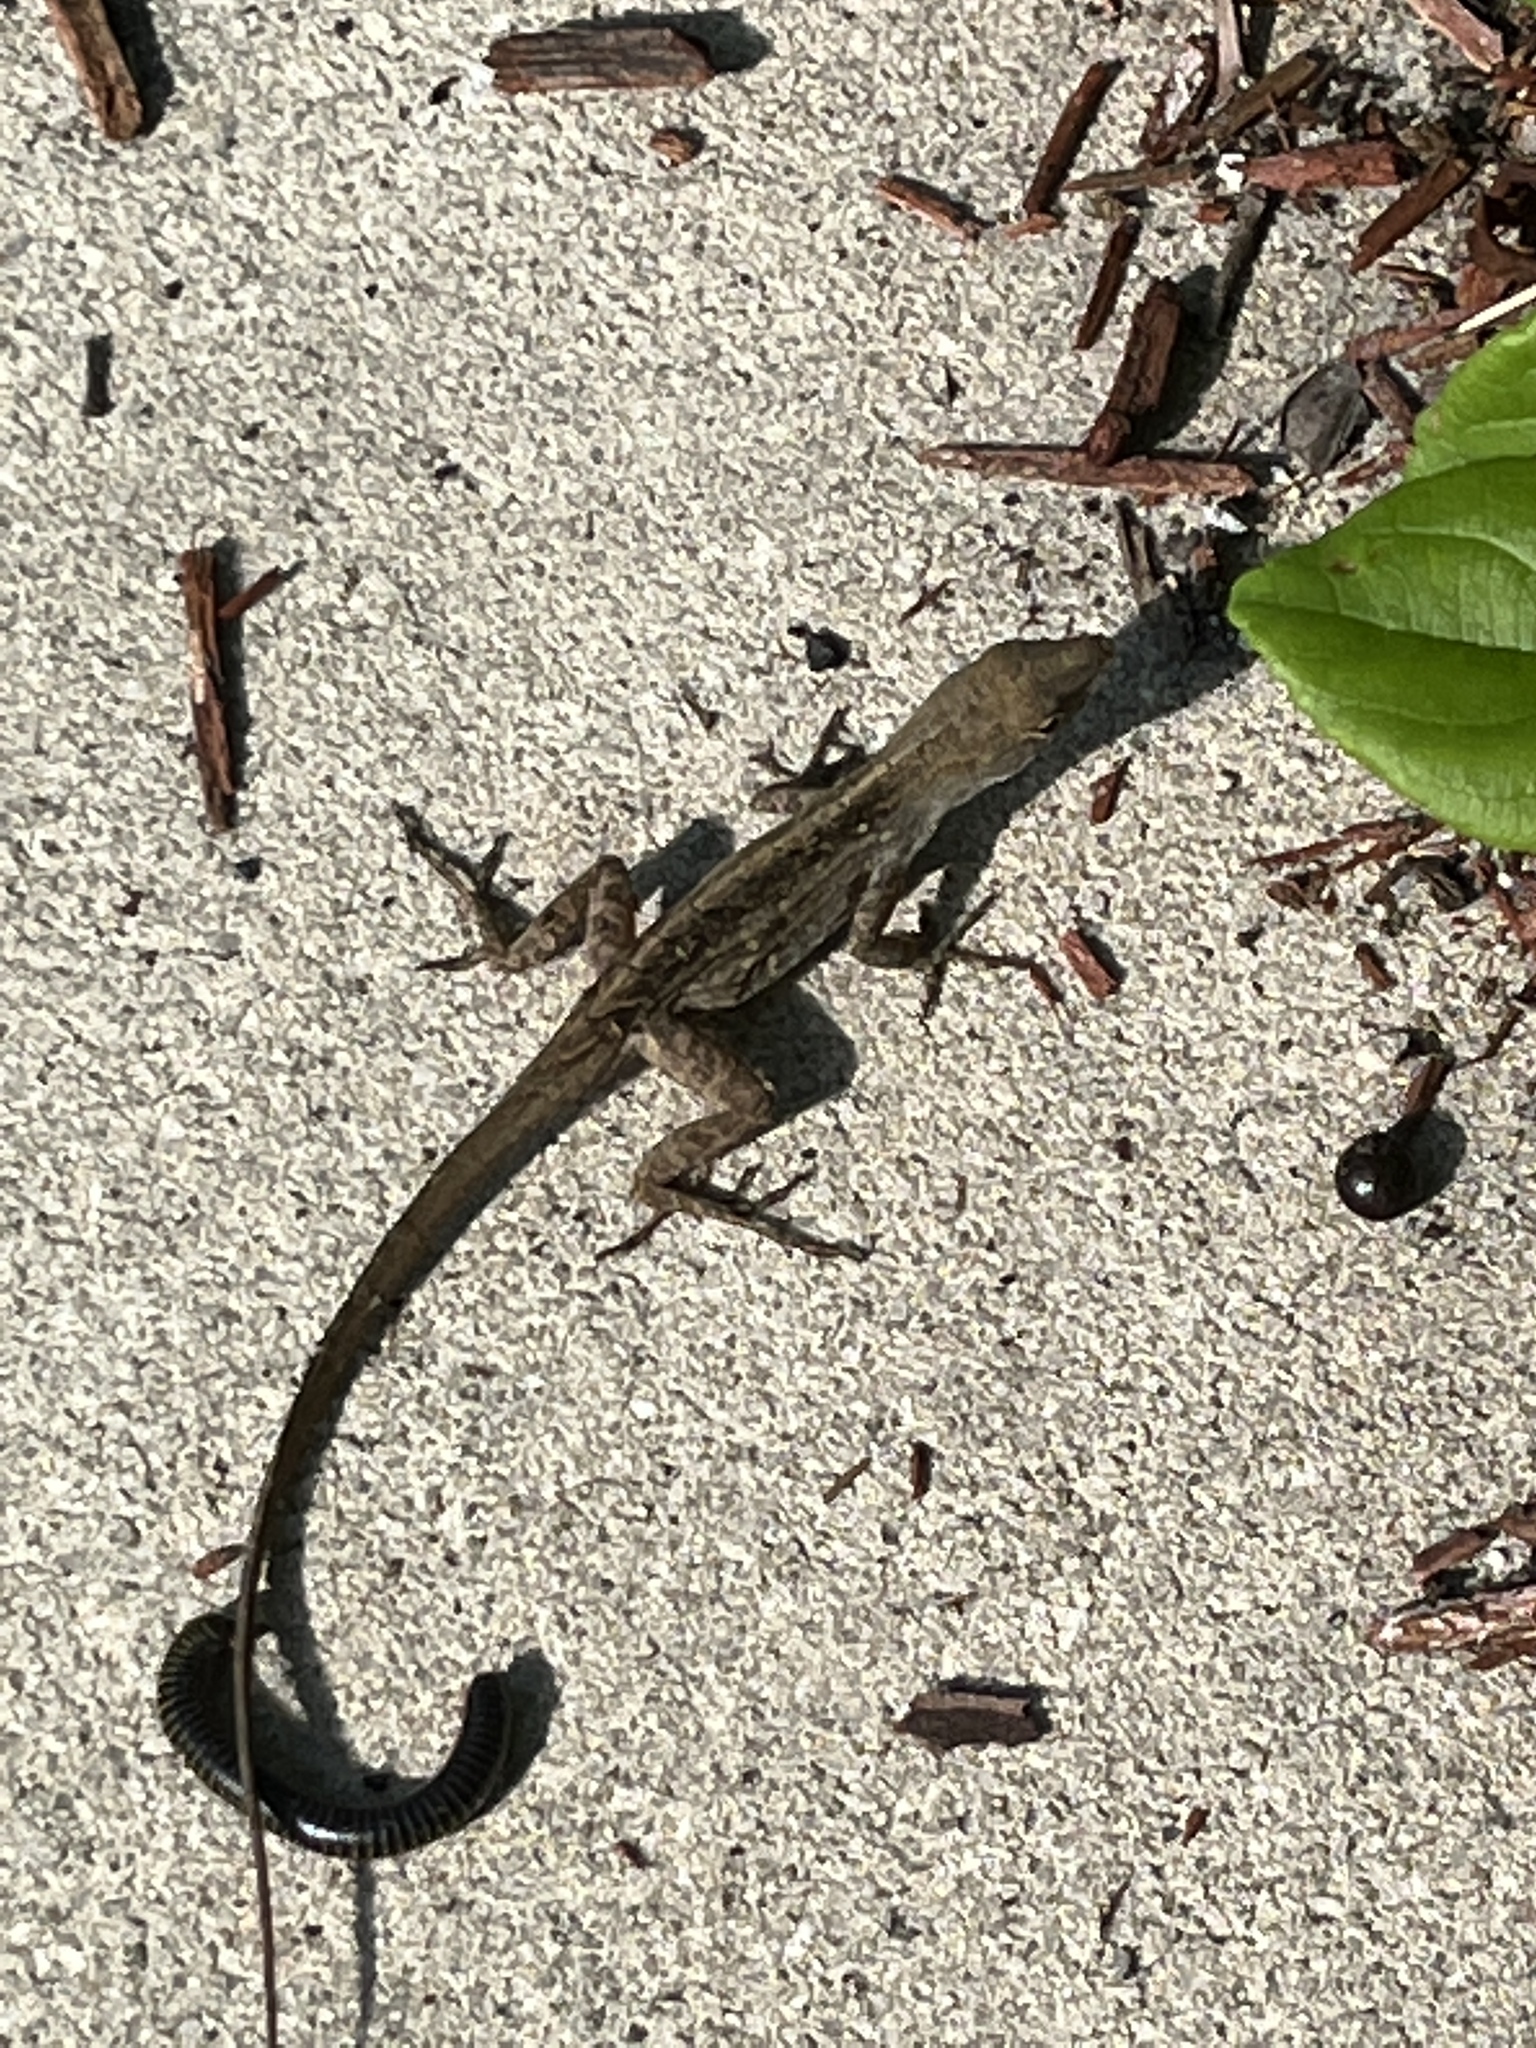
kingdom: Animalia
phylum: Chordata
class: Squamata
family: Dactyloidae
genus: Anolis
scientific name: Anolis sagrei
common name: Brown anole
